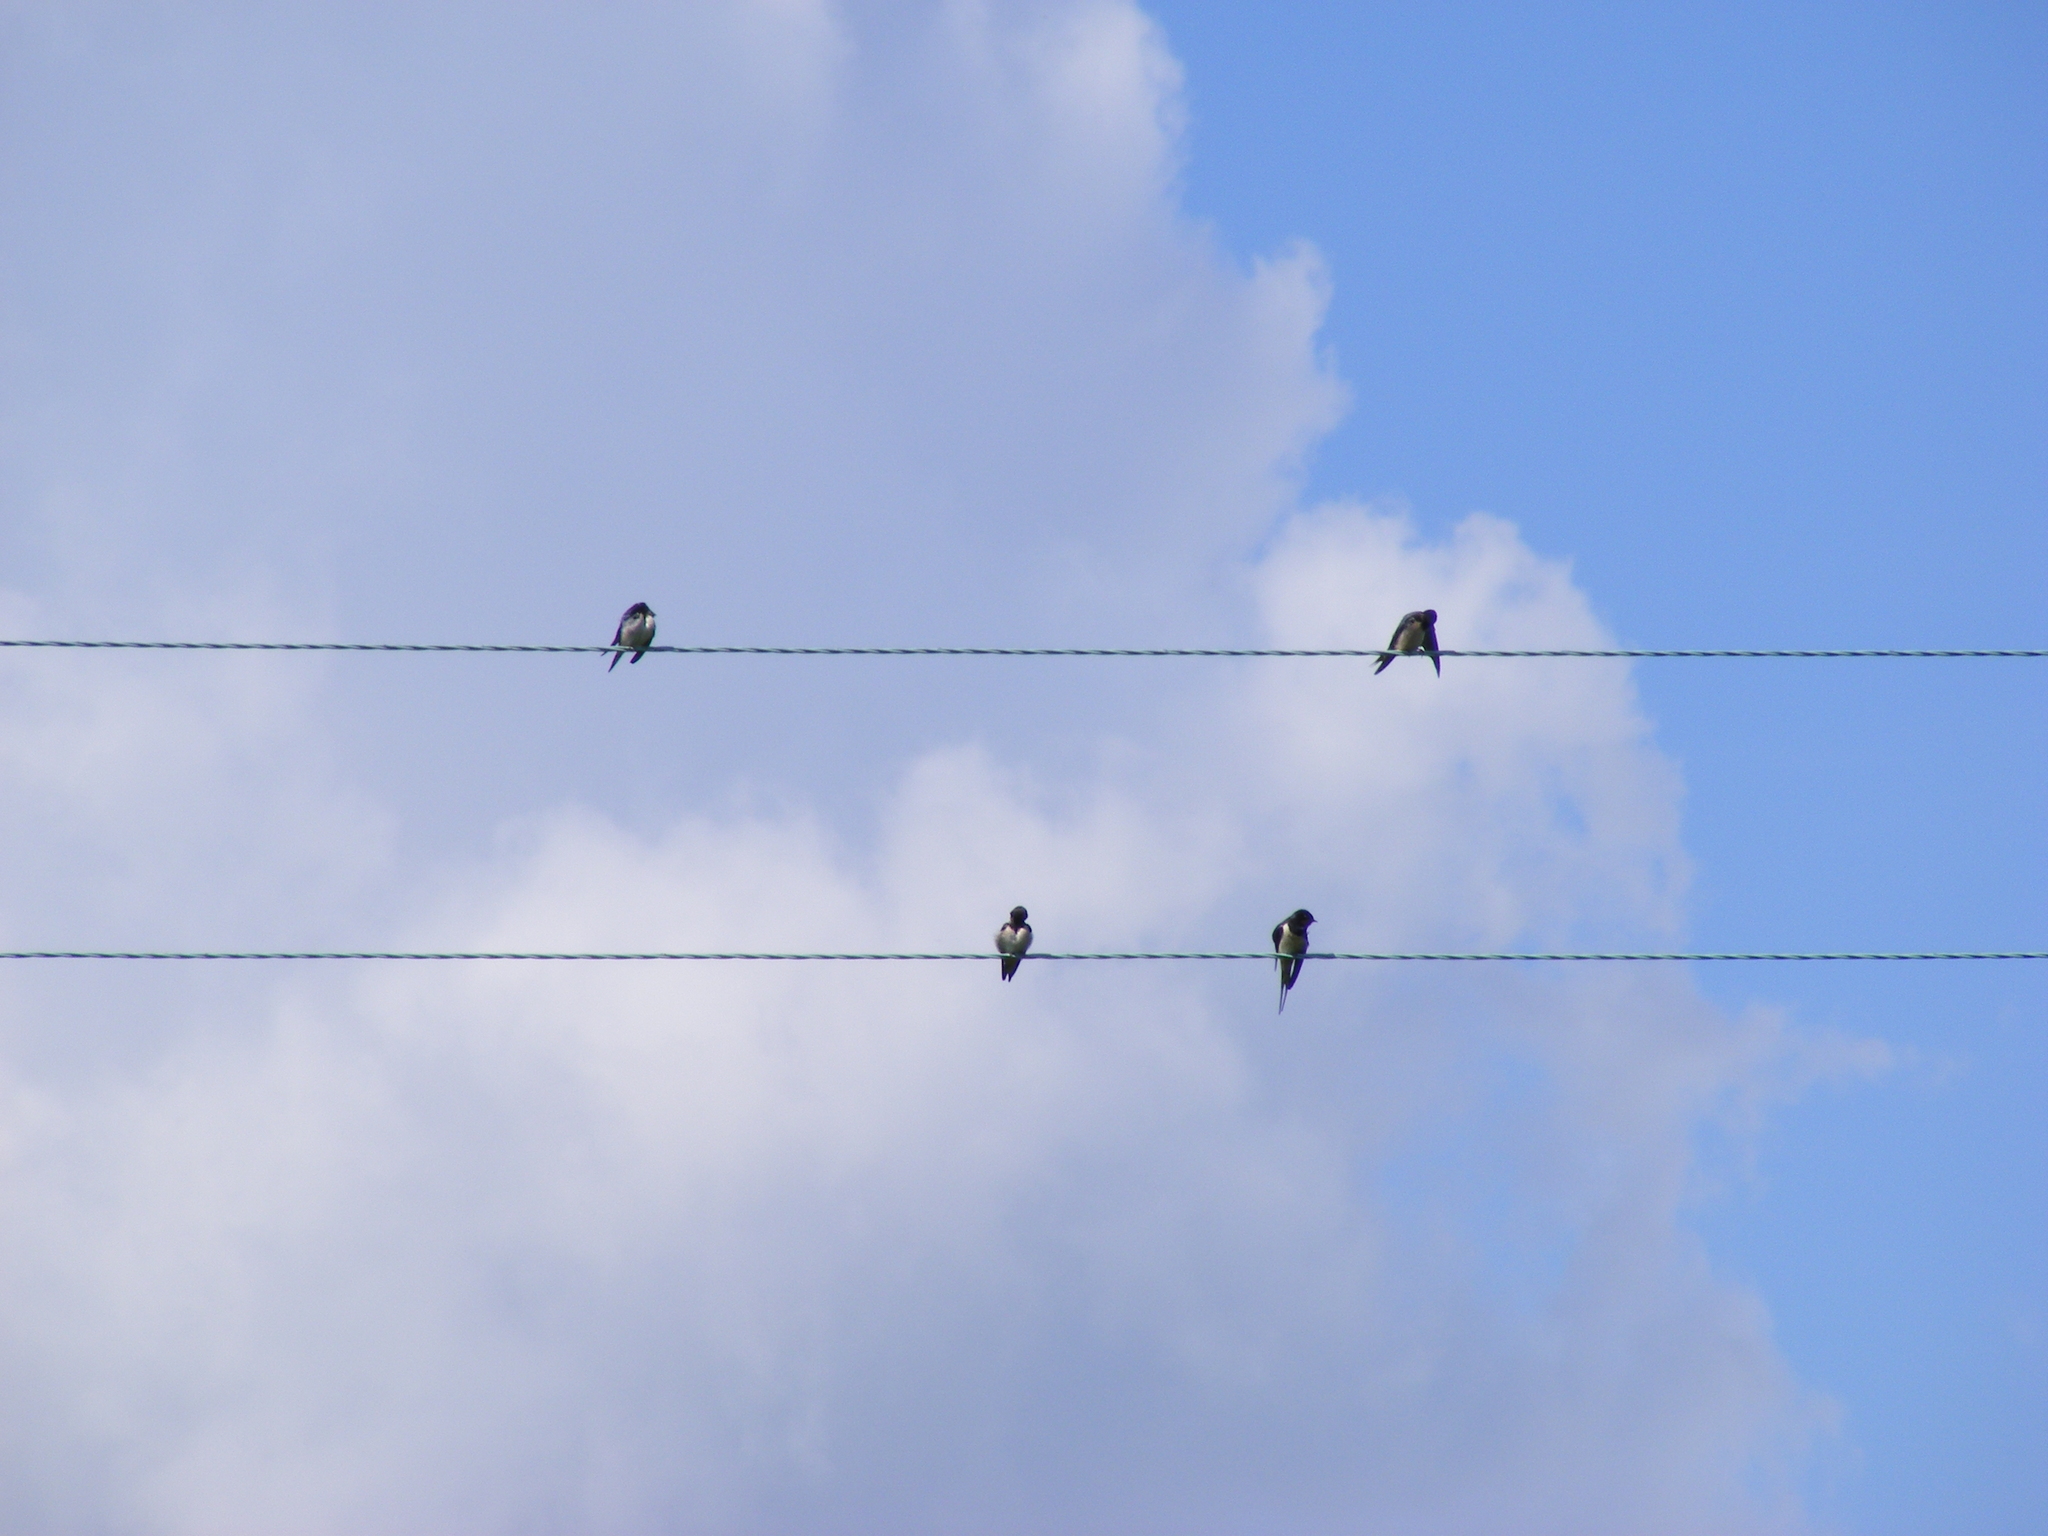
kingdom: Animalia
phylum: Chordata
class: Aves
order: Passeriformes
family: Hirundinidae
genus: Hirundo
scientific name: Hirundo rustica
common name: Barn swallow
